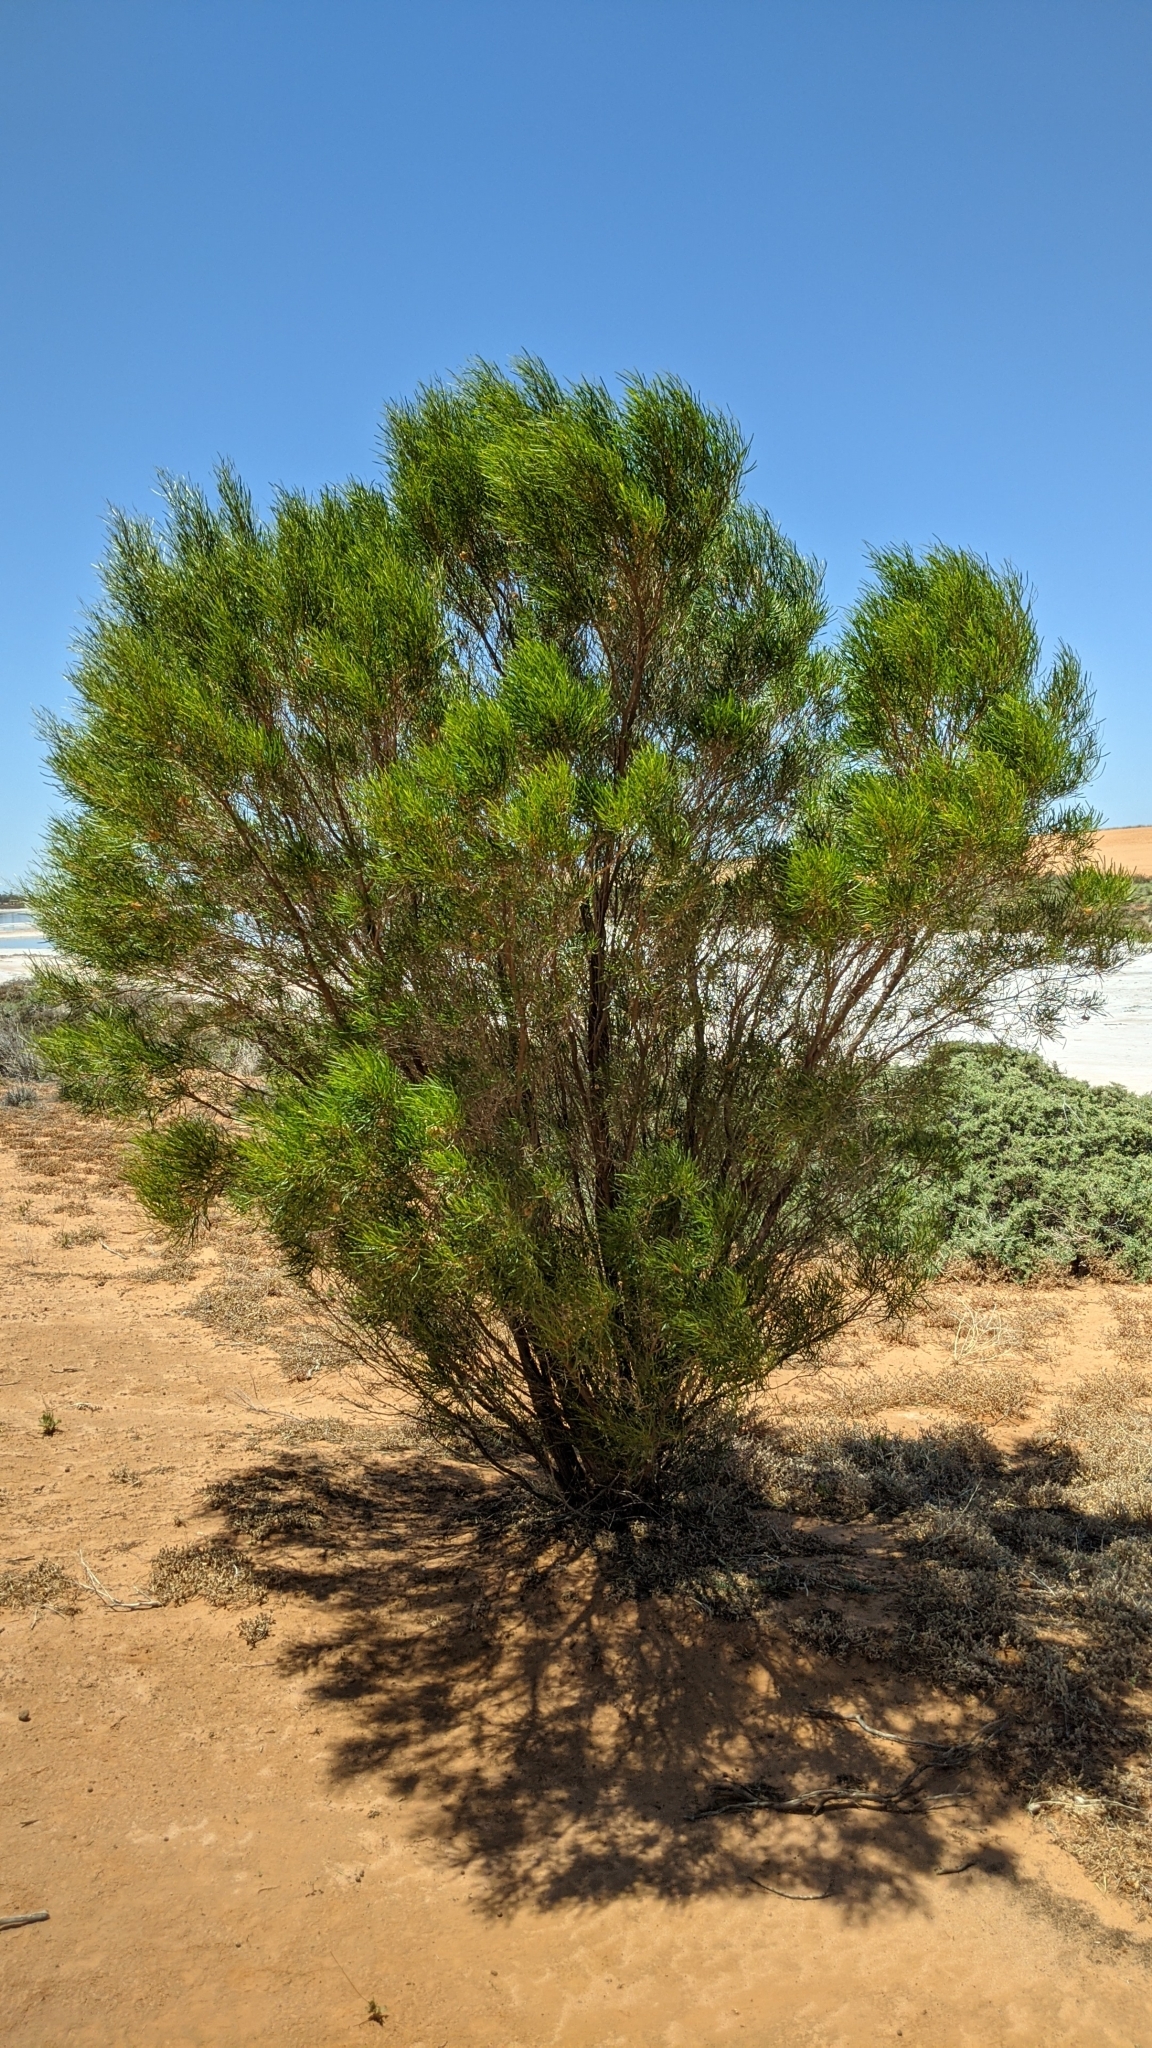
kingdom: Plantae
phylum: Tracheophyta
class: Magnoliopsida
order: Sapindales
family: Sapindaceae
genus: Dodonaea
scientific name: Dodonaea viscosa
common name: Hopbush
